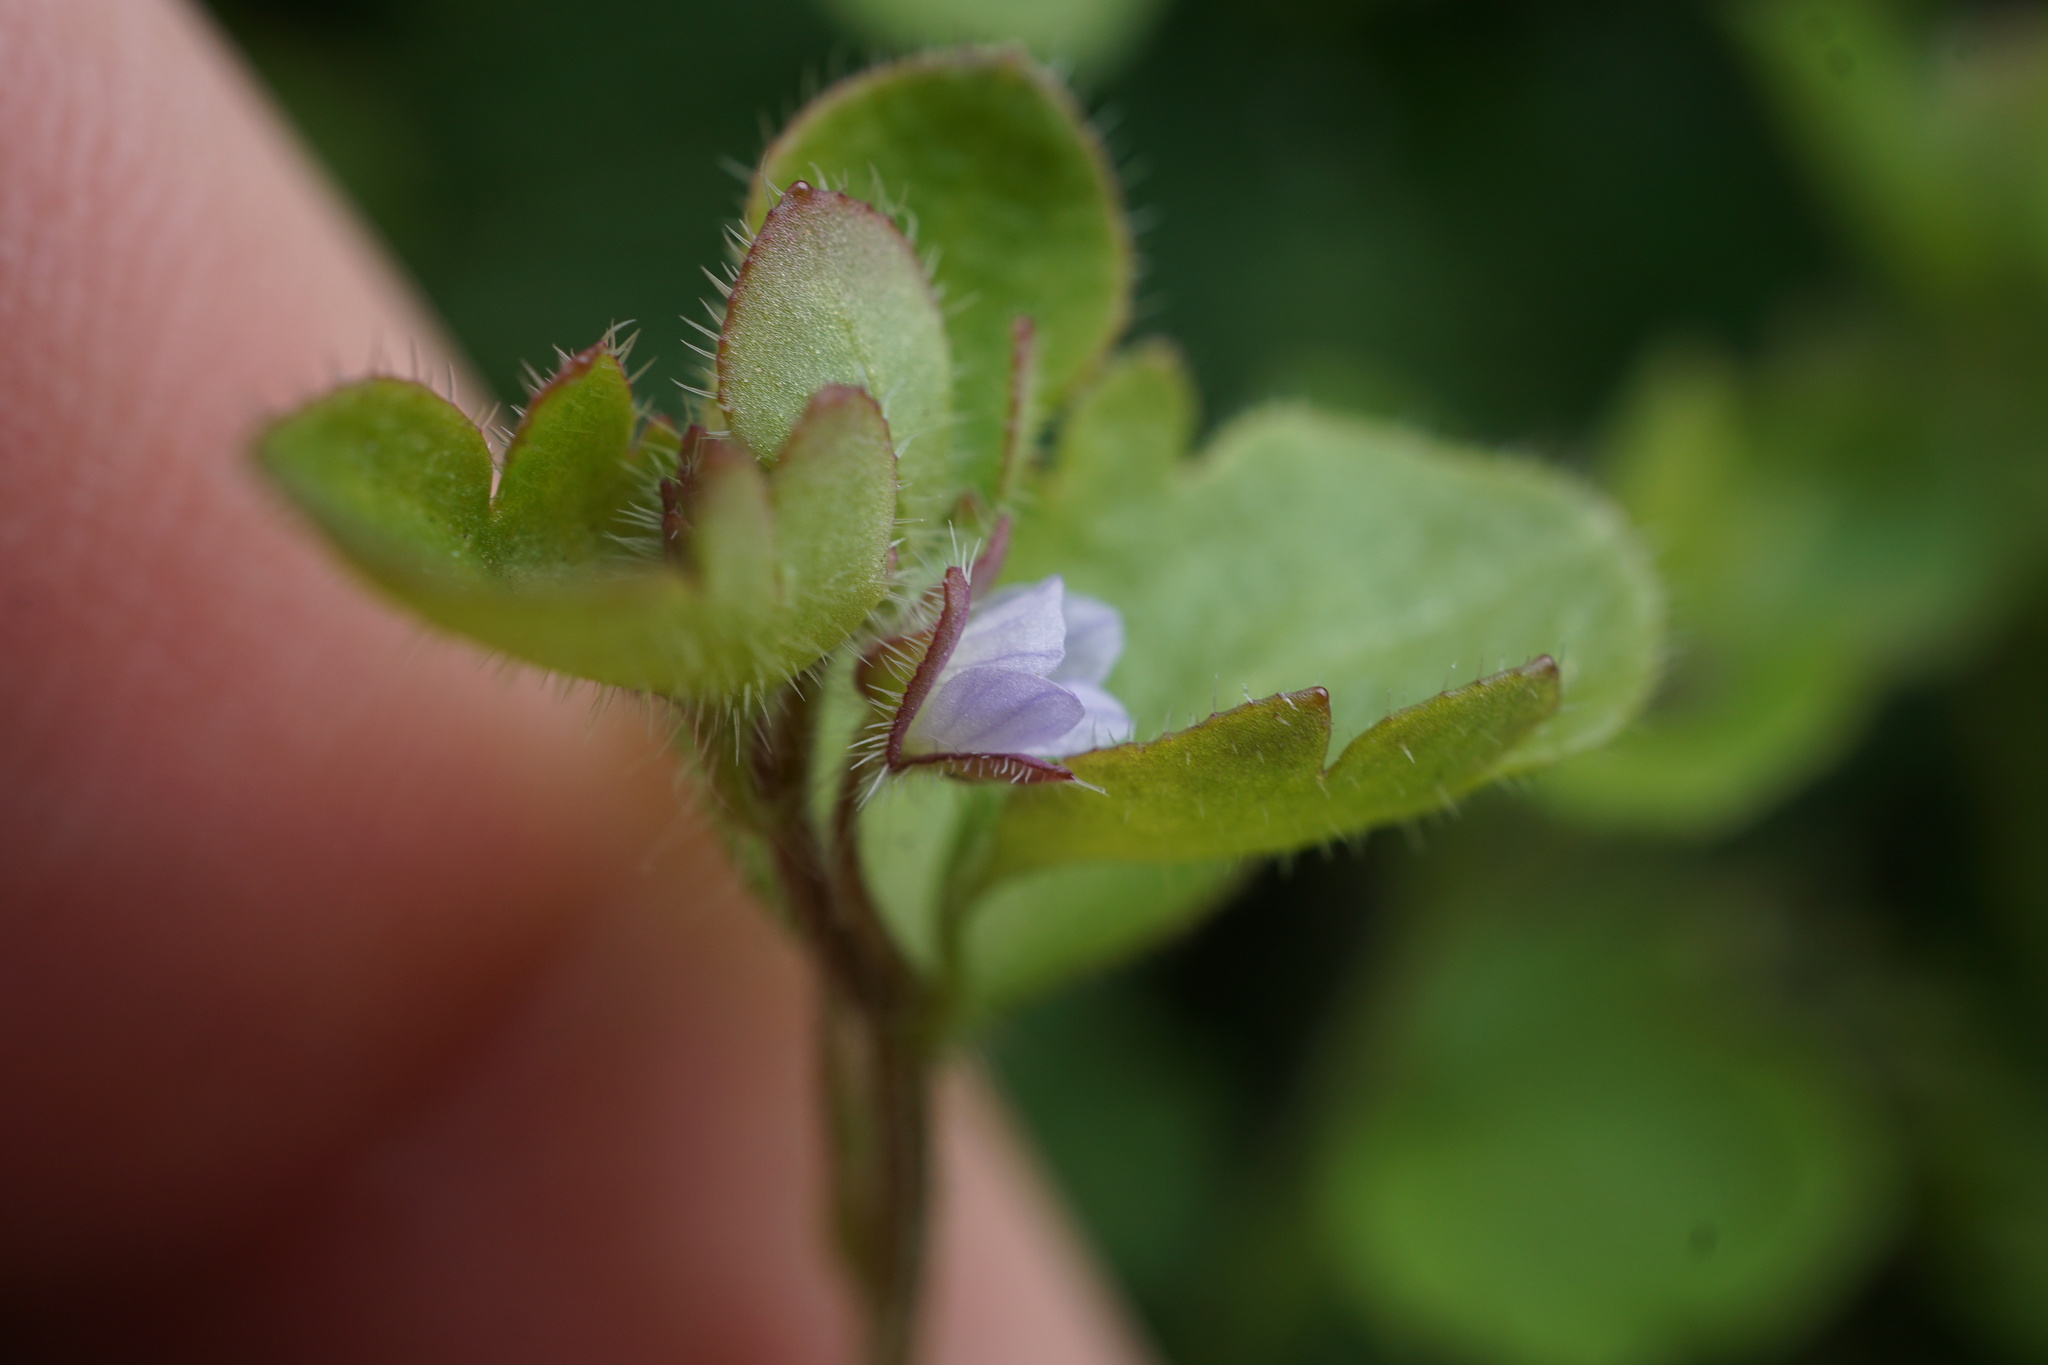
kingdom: Plantae
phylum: Tracheophyta
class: Magnoliopsida
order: Lamiales
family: Plantaginaceae
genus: Veronica
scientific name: Veronica sublobata
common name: False ivy-leaved speedwell
